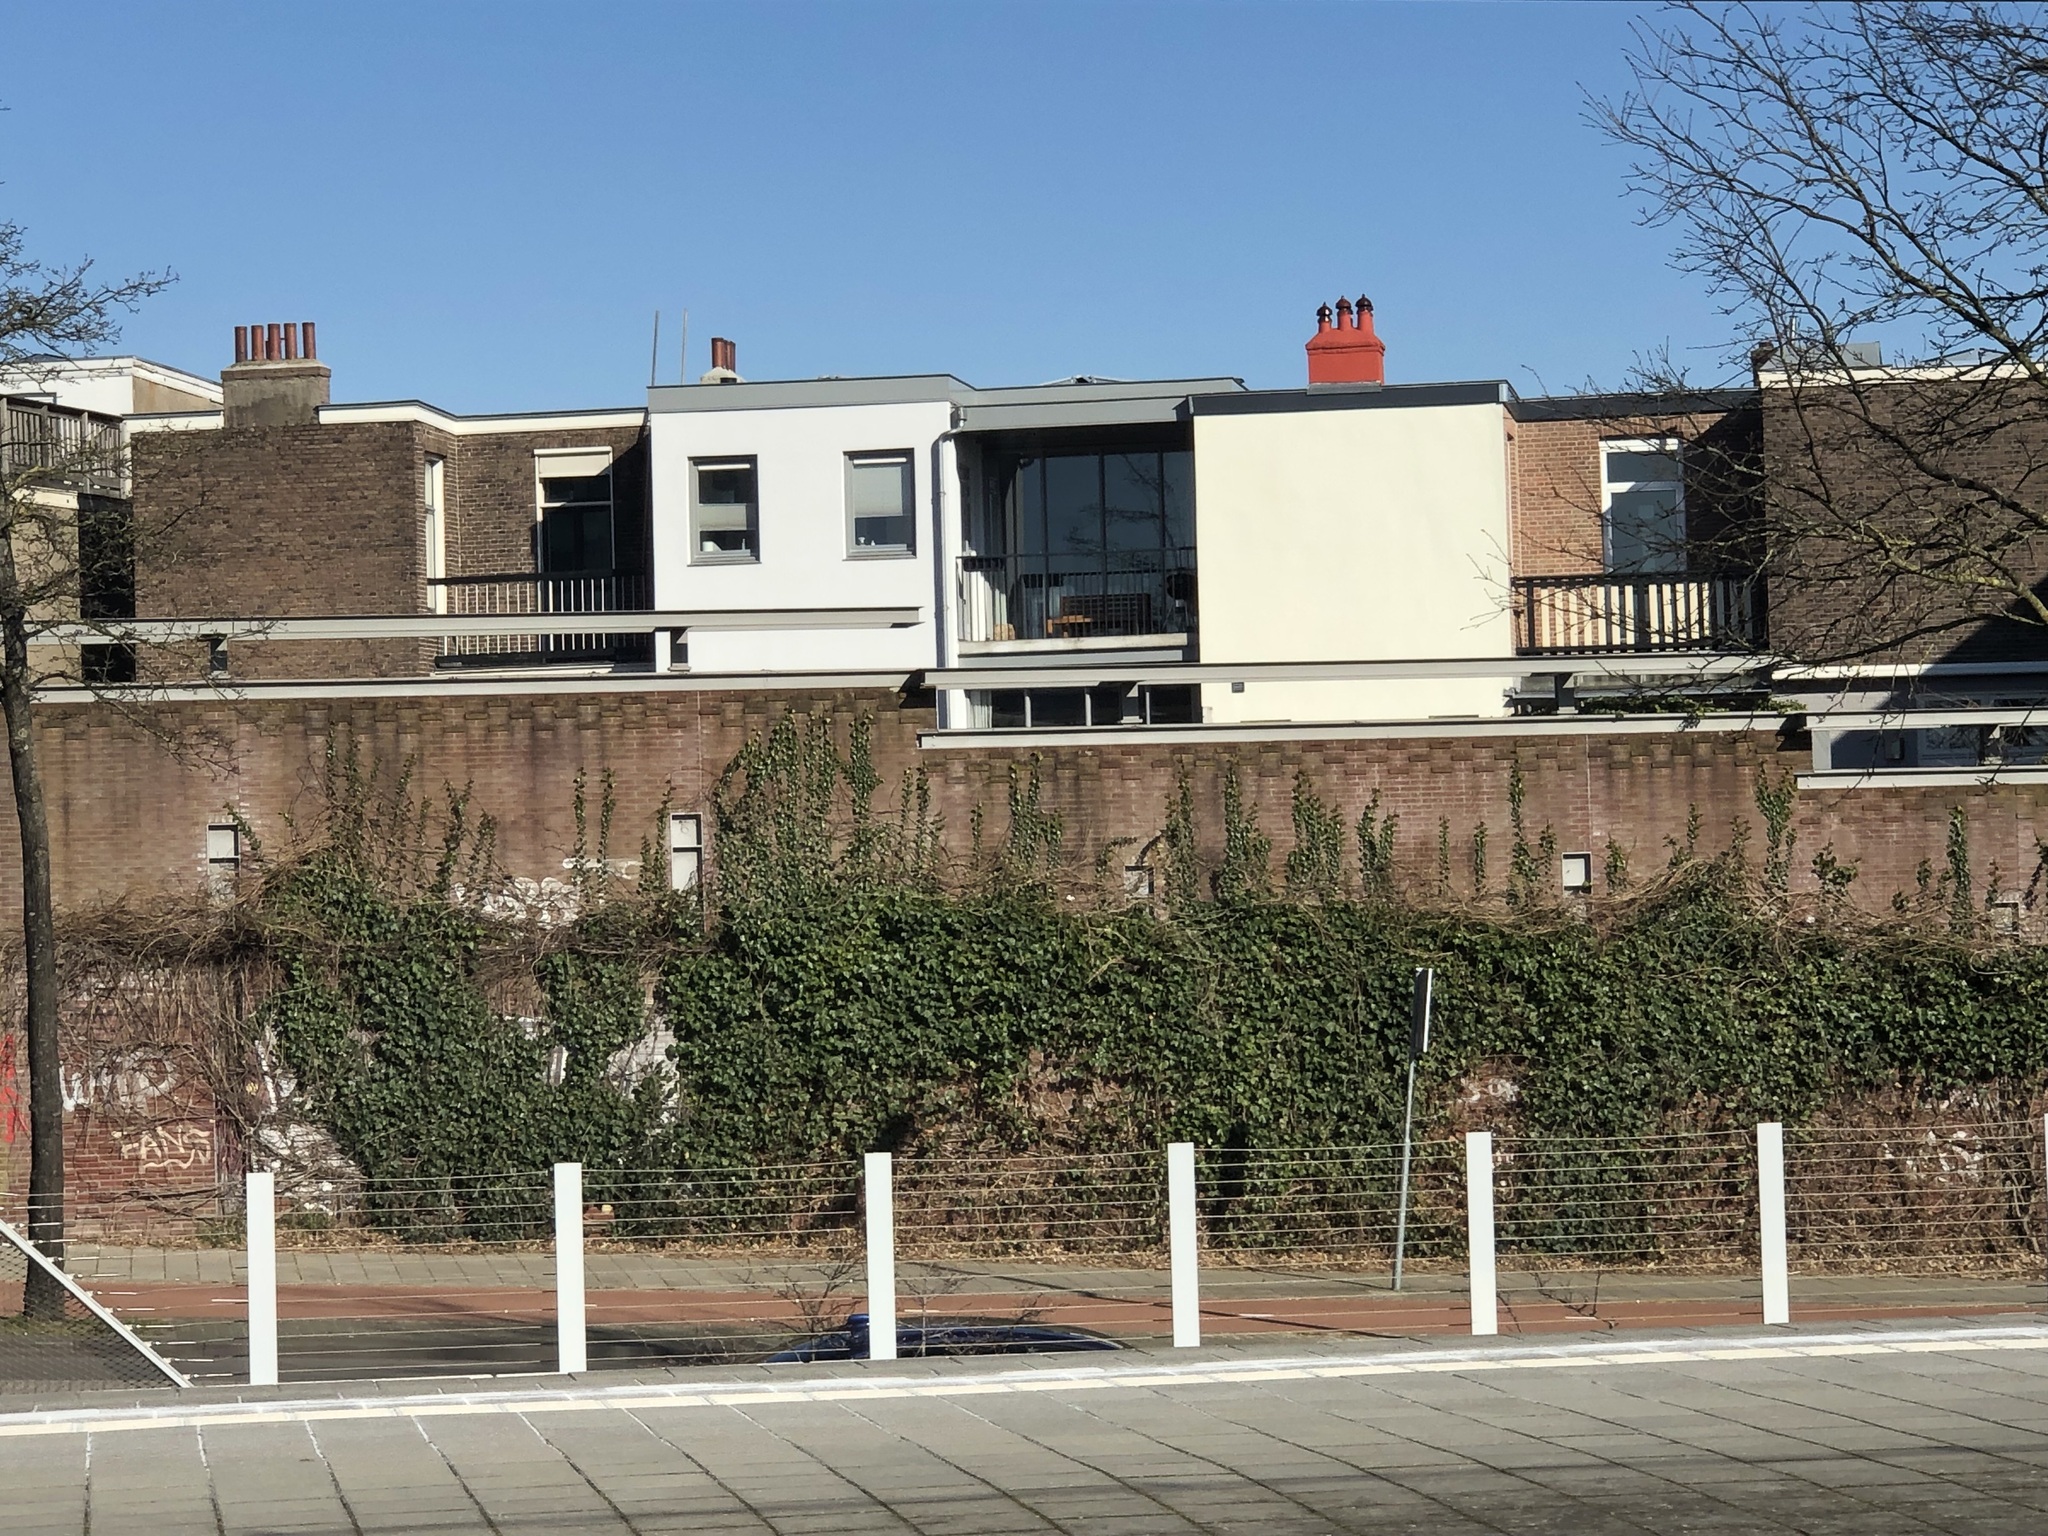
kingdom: Plantae
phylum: Tracheophyta
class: Magnoliopsida
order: Apiales
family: Araliaceae
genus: Hedera
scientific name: Hedera helix
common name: Ivy
